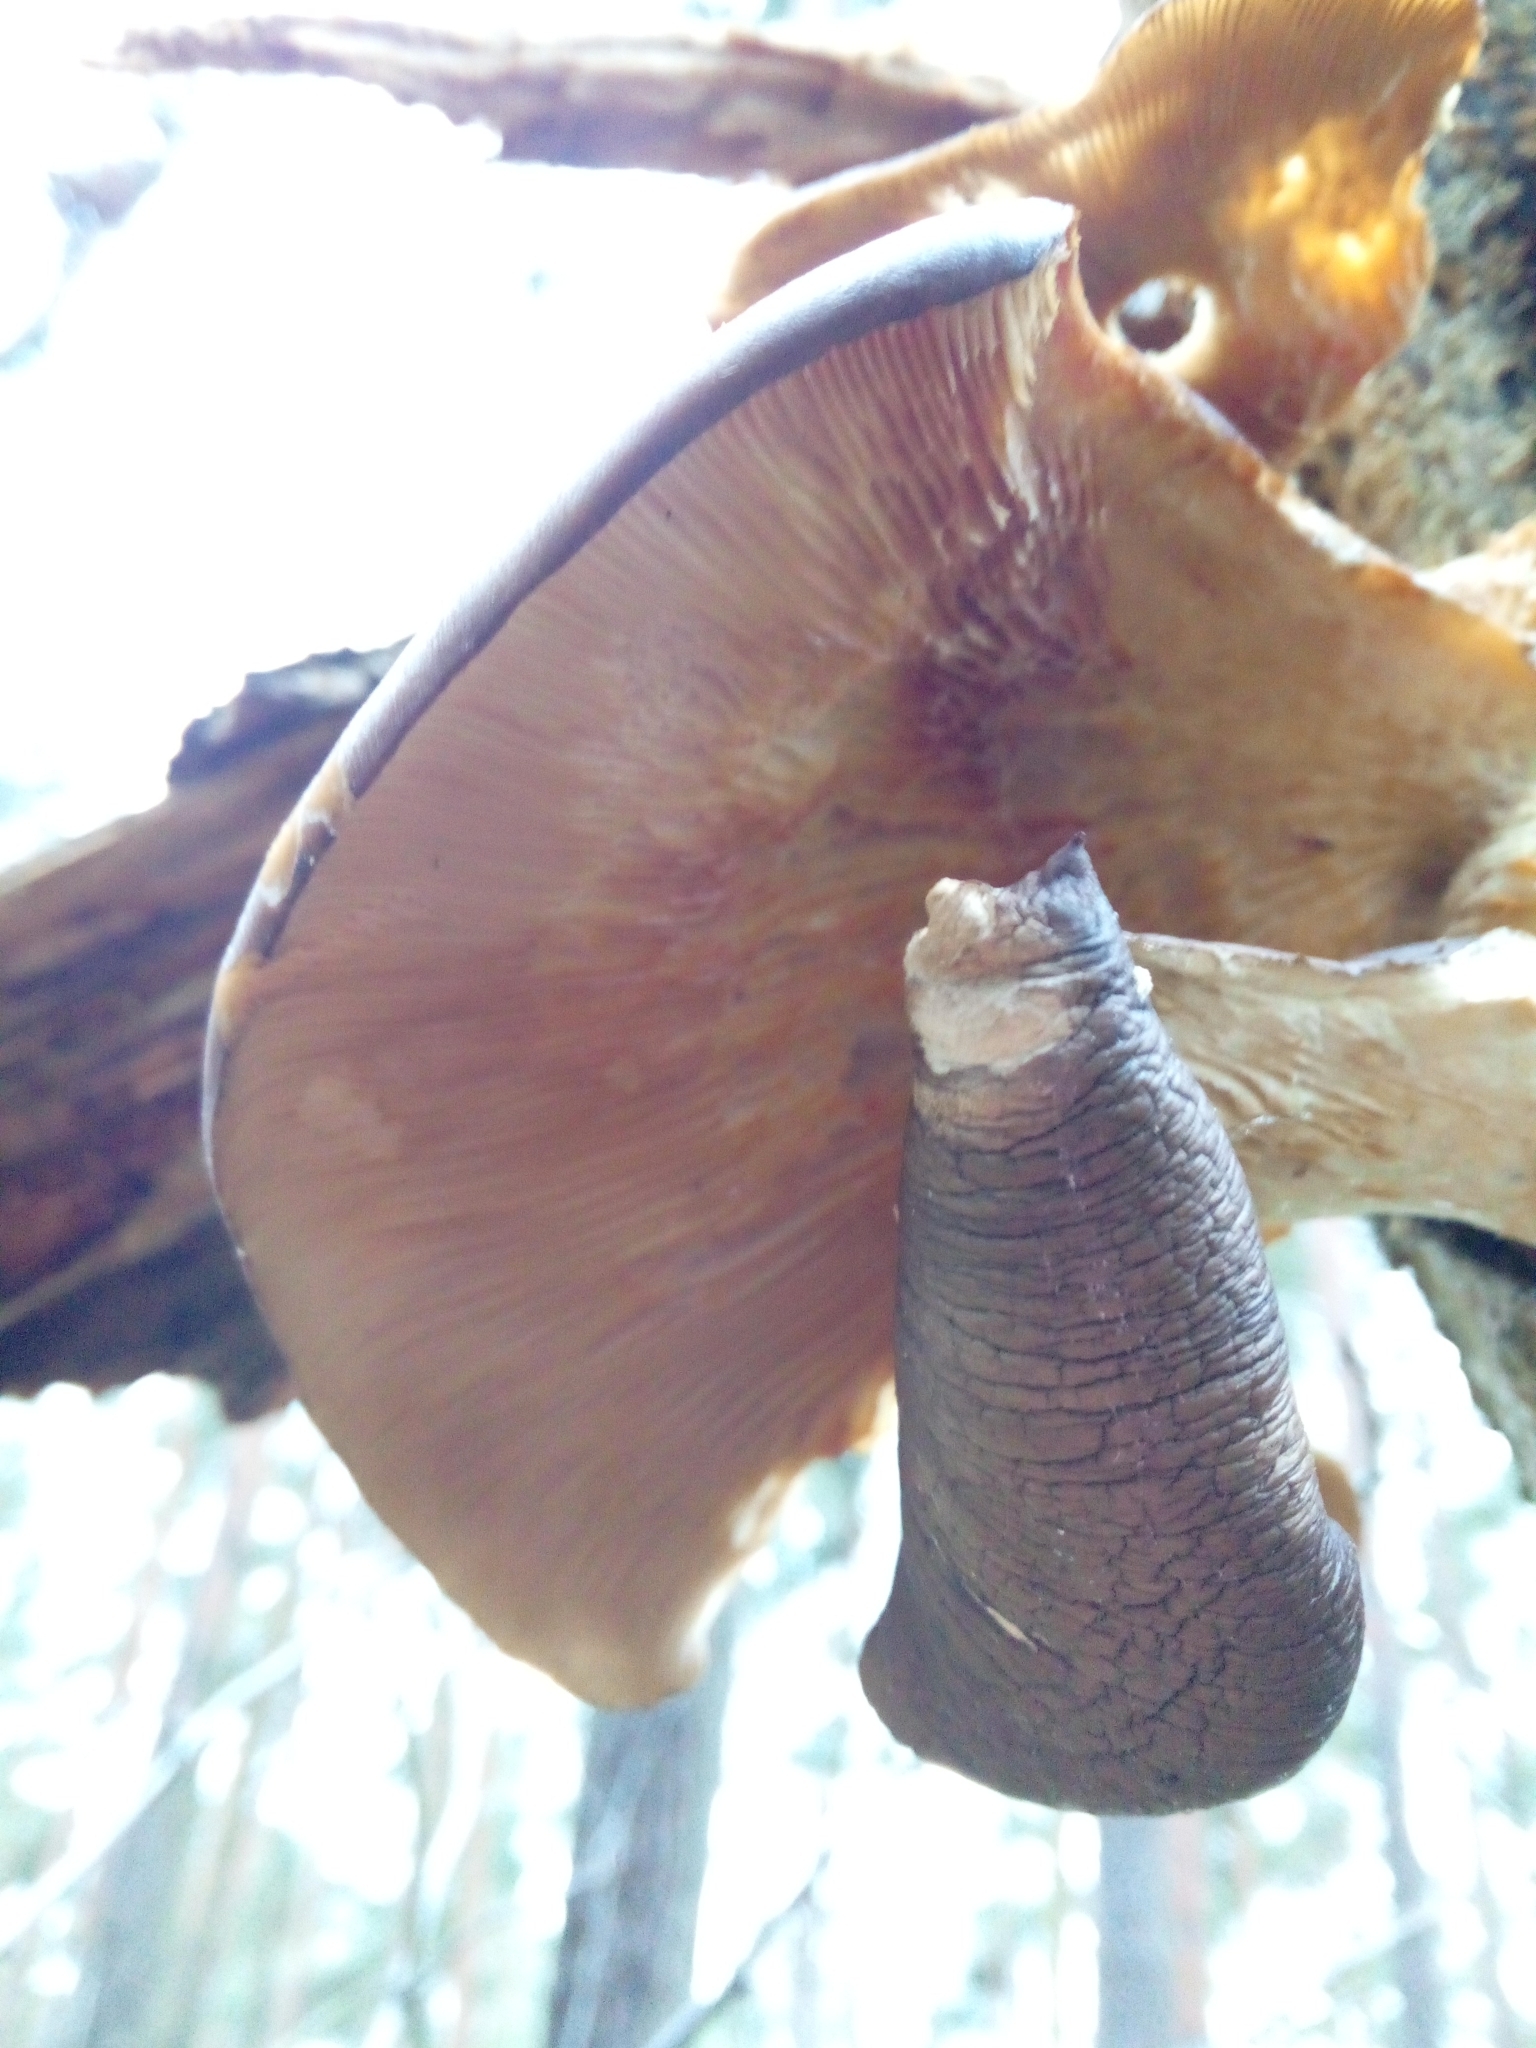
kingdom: Fungi
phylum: Basidiomycota
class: Agaricomycetes
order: Agaricales
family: Pleurotaceae
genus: Pleurotus
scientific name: Pleurotus ostreatus
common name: Oyster mushroom
